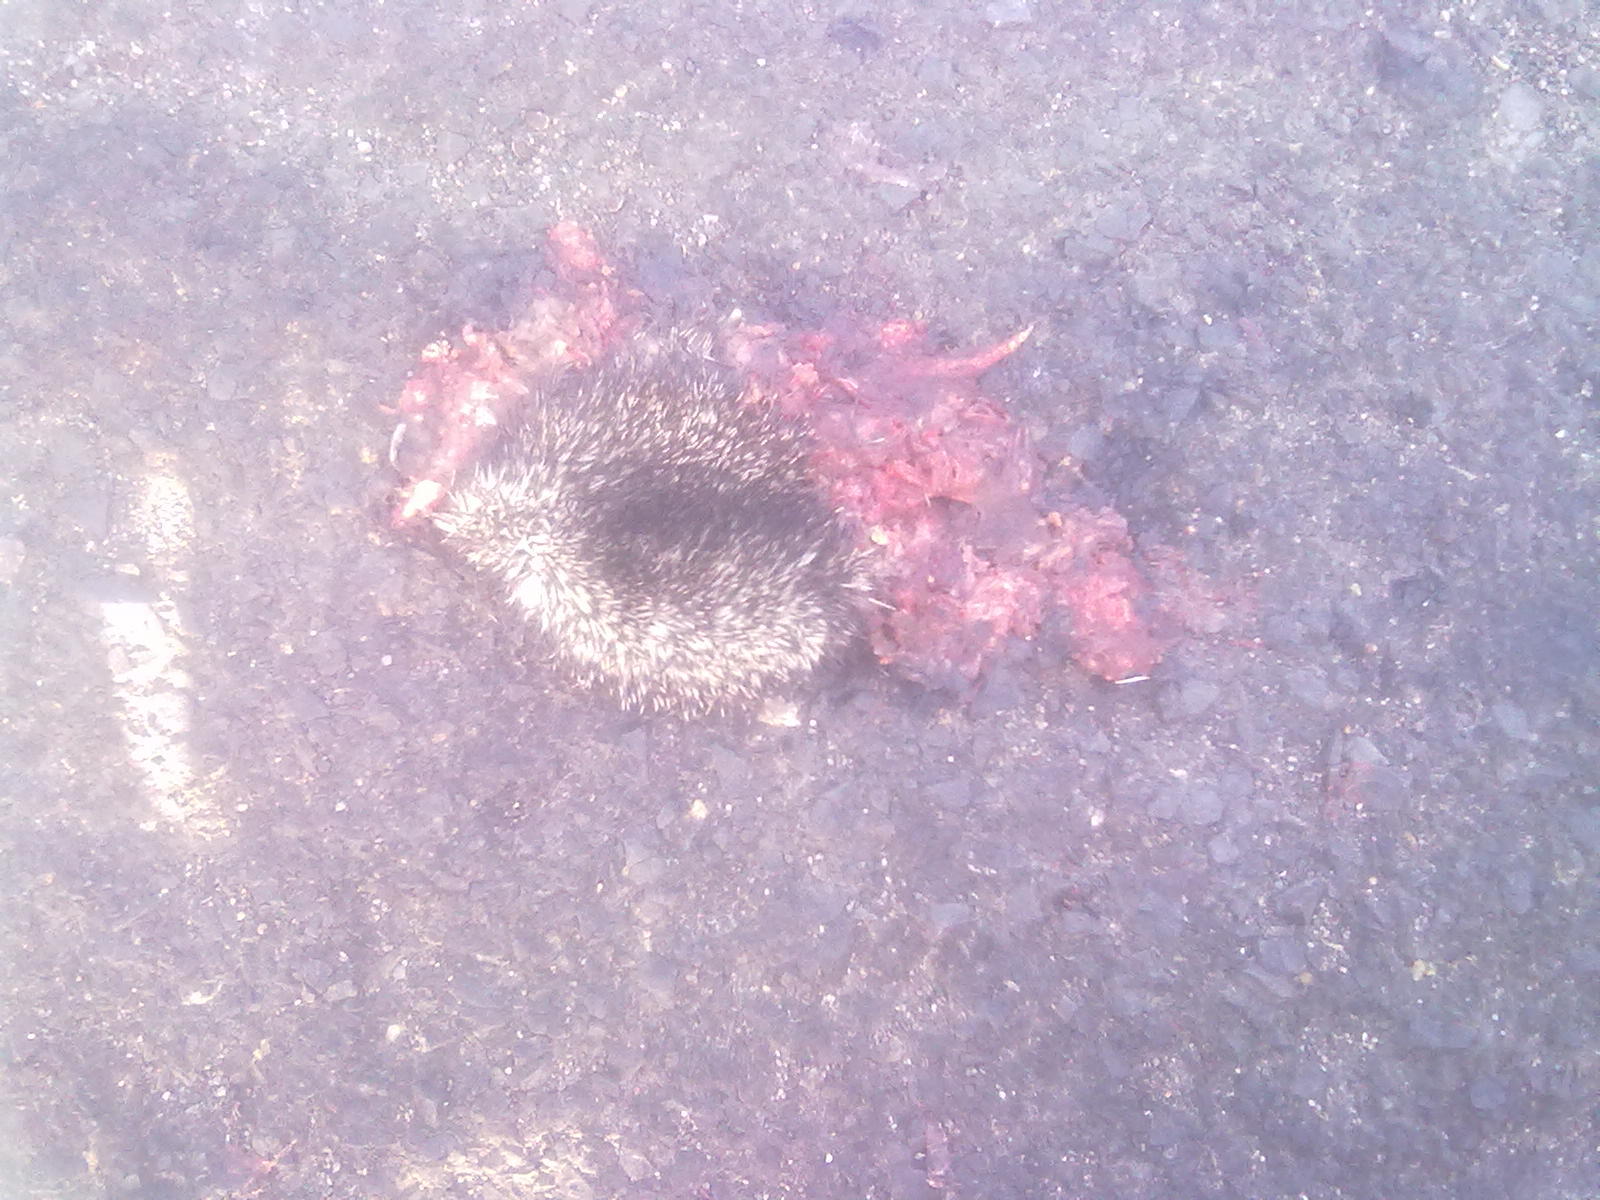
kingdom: Animalia
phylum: Chordata
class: Mammalia
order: Erinaceomorpha
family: Erinaceidae
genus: Hemiechinus
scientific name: Hemiechinus collaris
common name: Indian long-eared hedgehog
